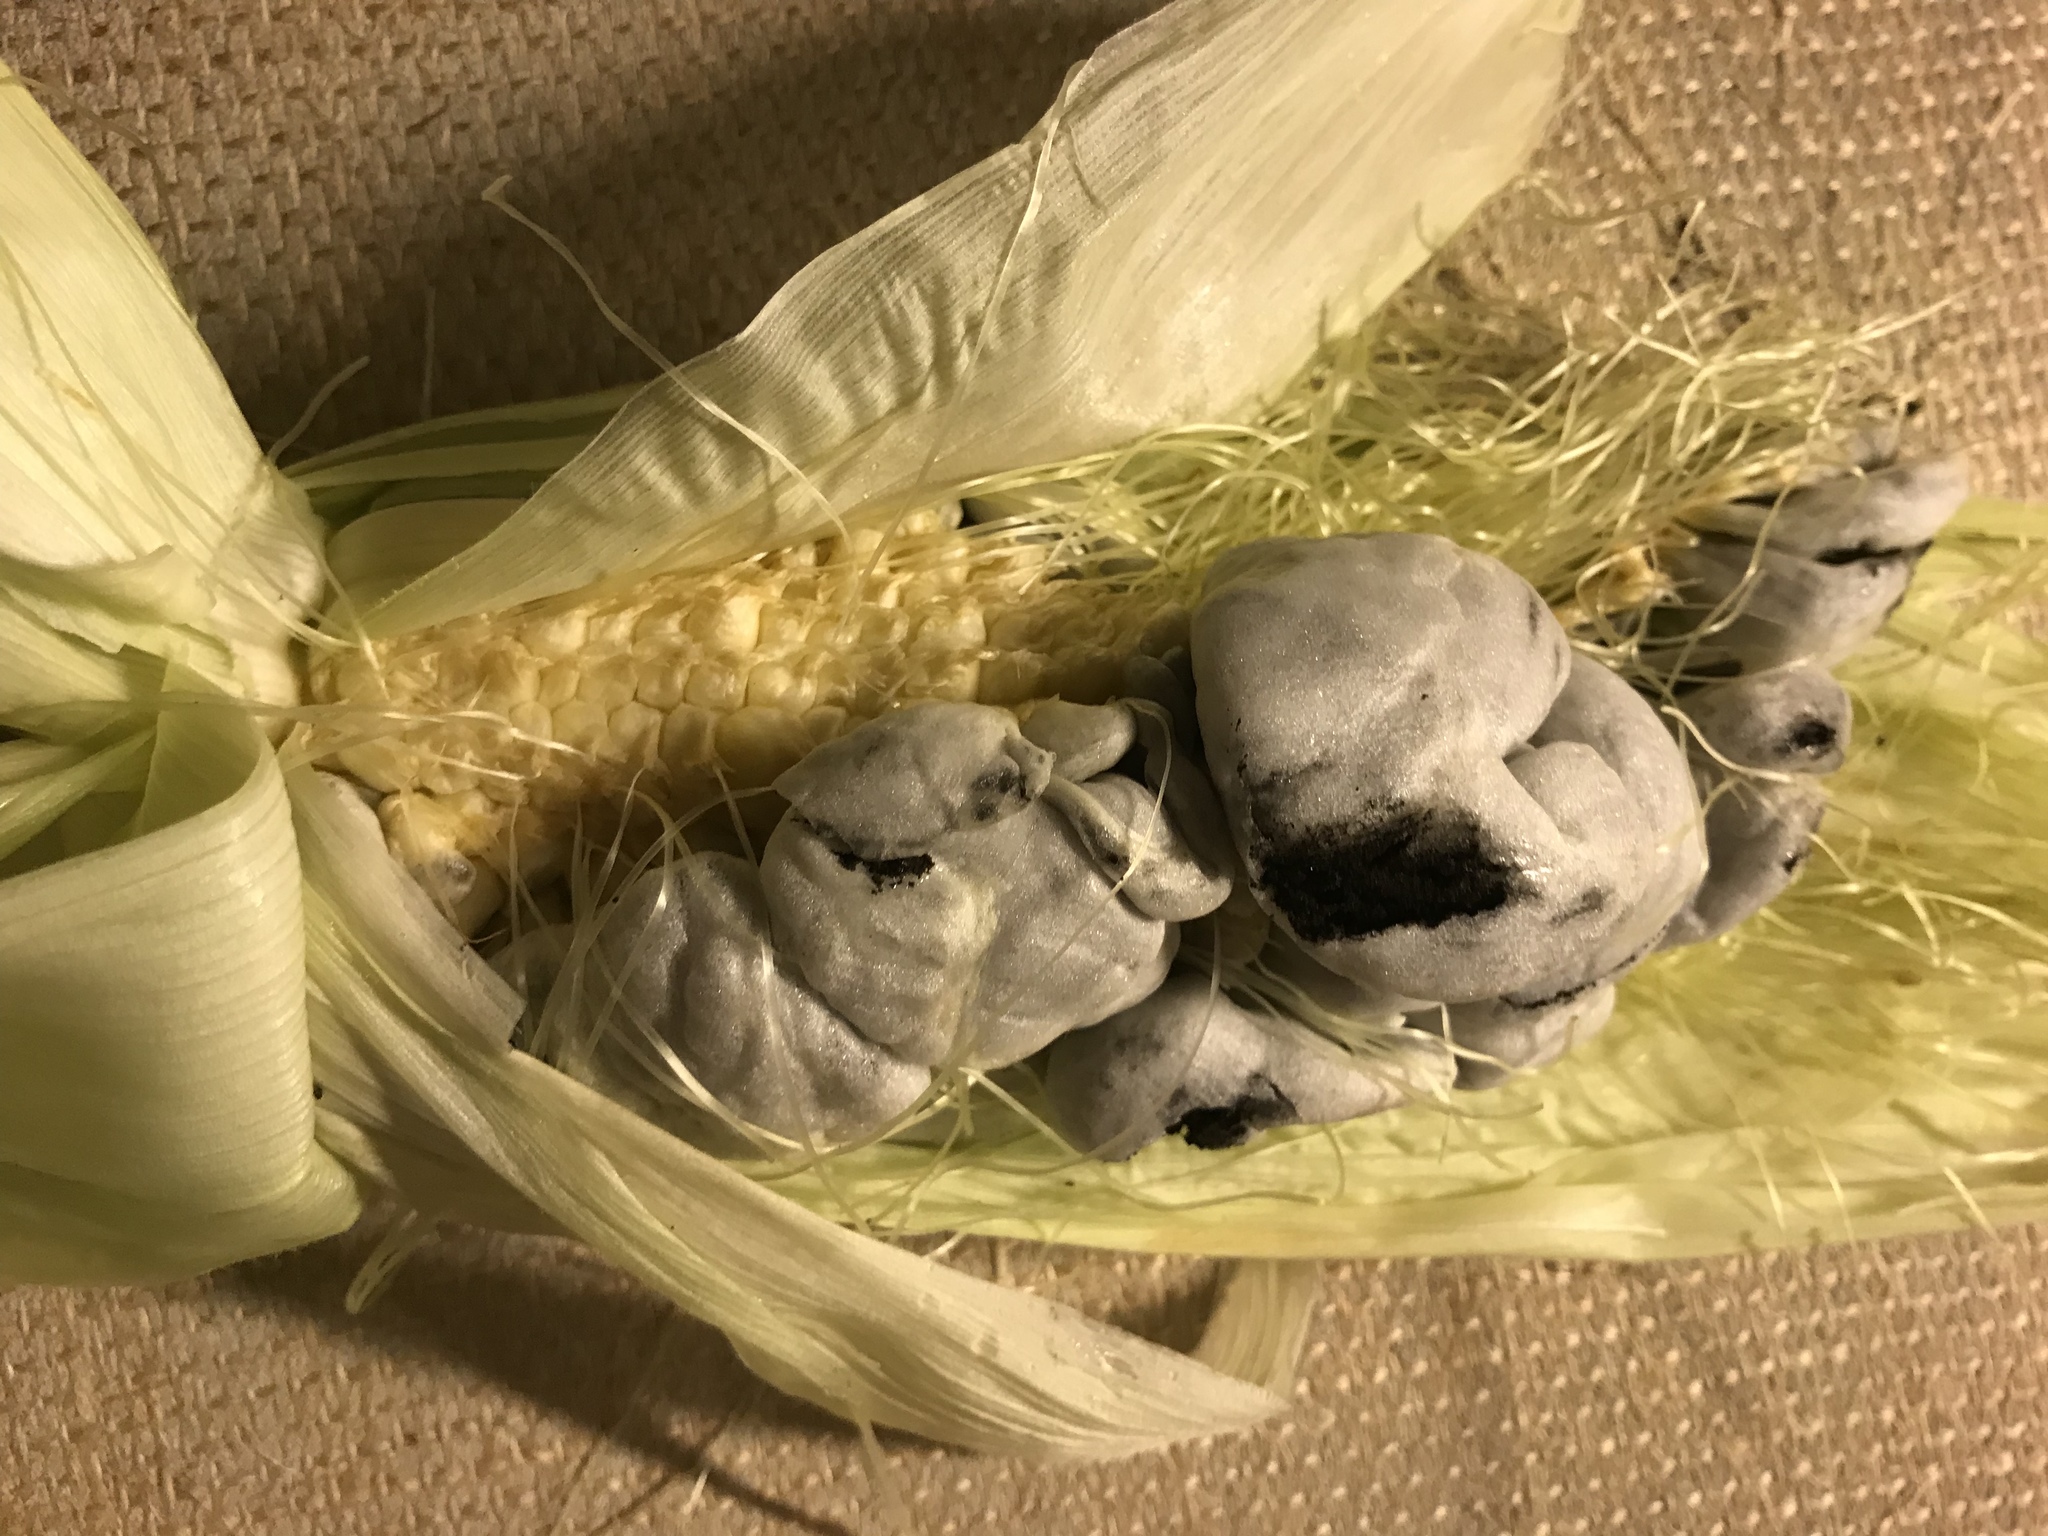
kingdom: Fungi
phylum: Basidiomycota
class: Ustilaginomycetes
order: Ustilaginales
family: Ustilaginaceae
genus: Mycosarcoma
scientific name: Mycosarcoma maydis
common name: Corn smut
